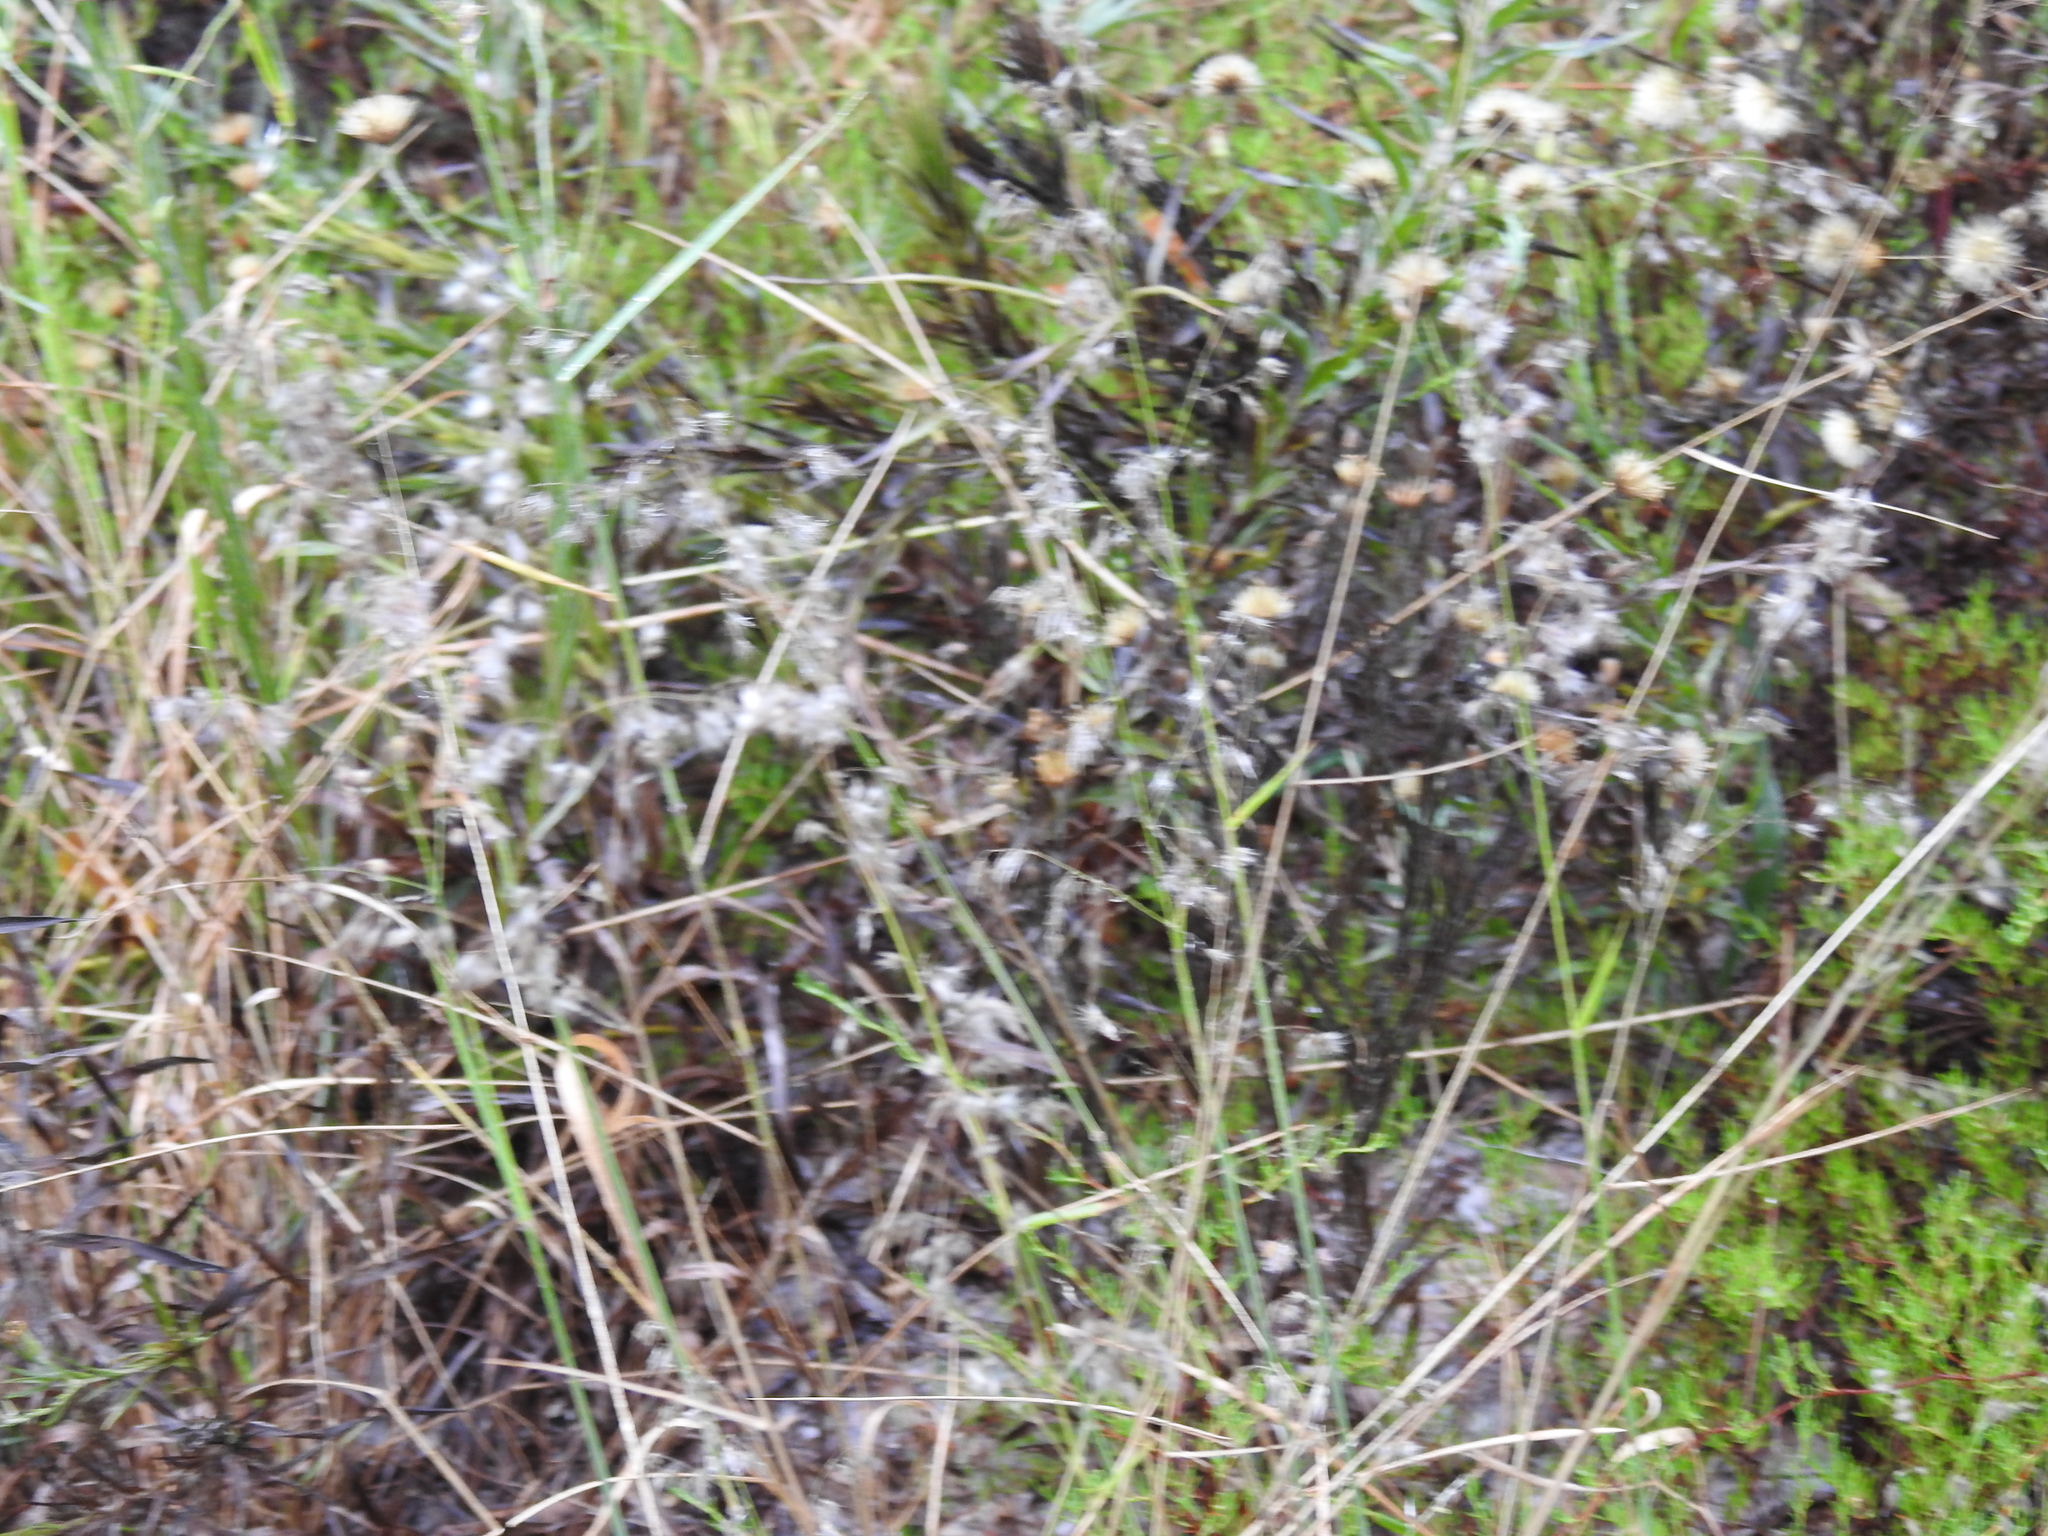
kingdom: Plantae
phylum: Tracheophyta
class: Liliopsida
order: Poales
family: Poaceae
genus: Melinis
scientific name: Melinis repens
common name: Rose natal grass
